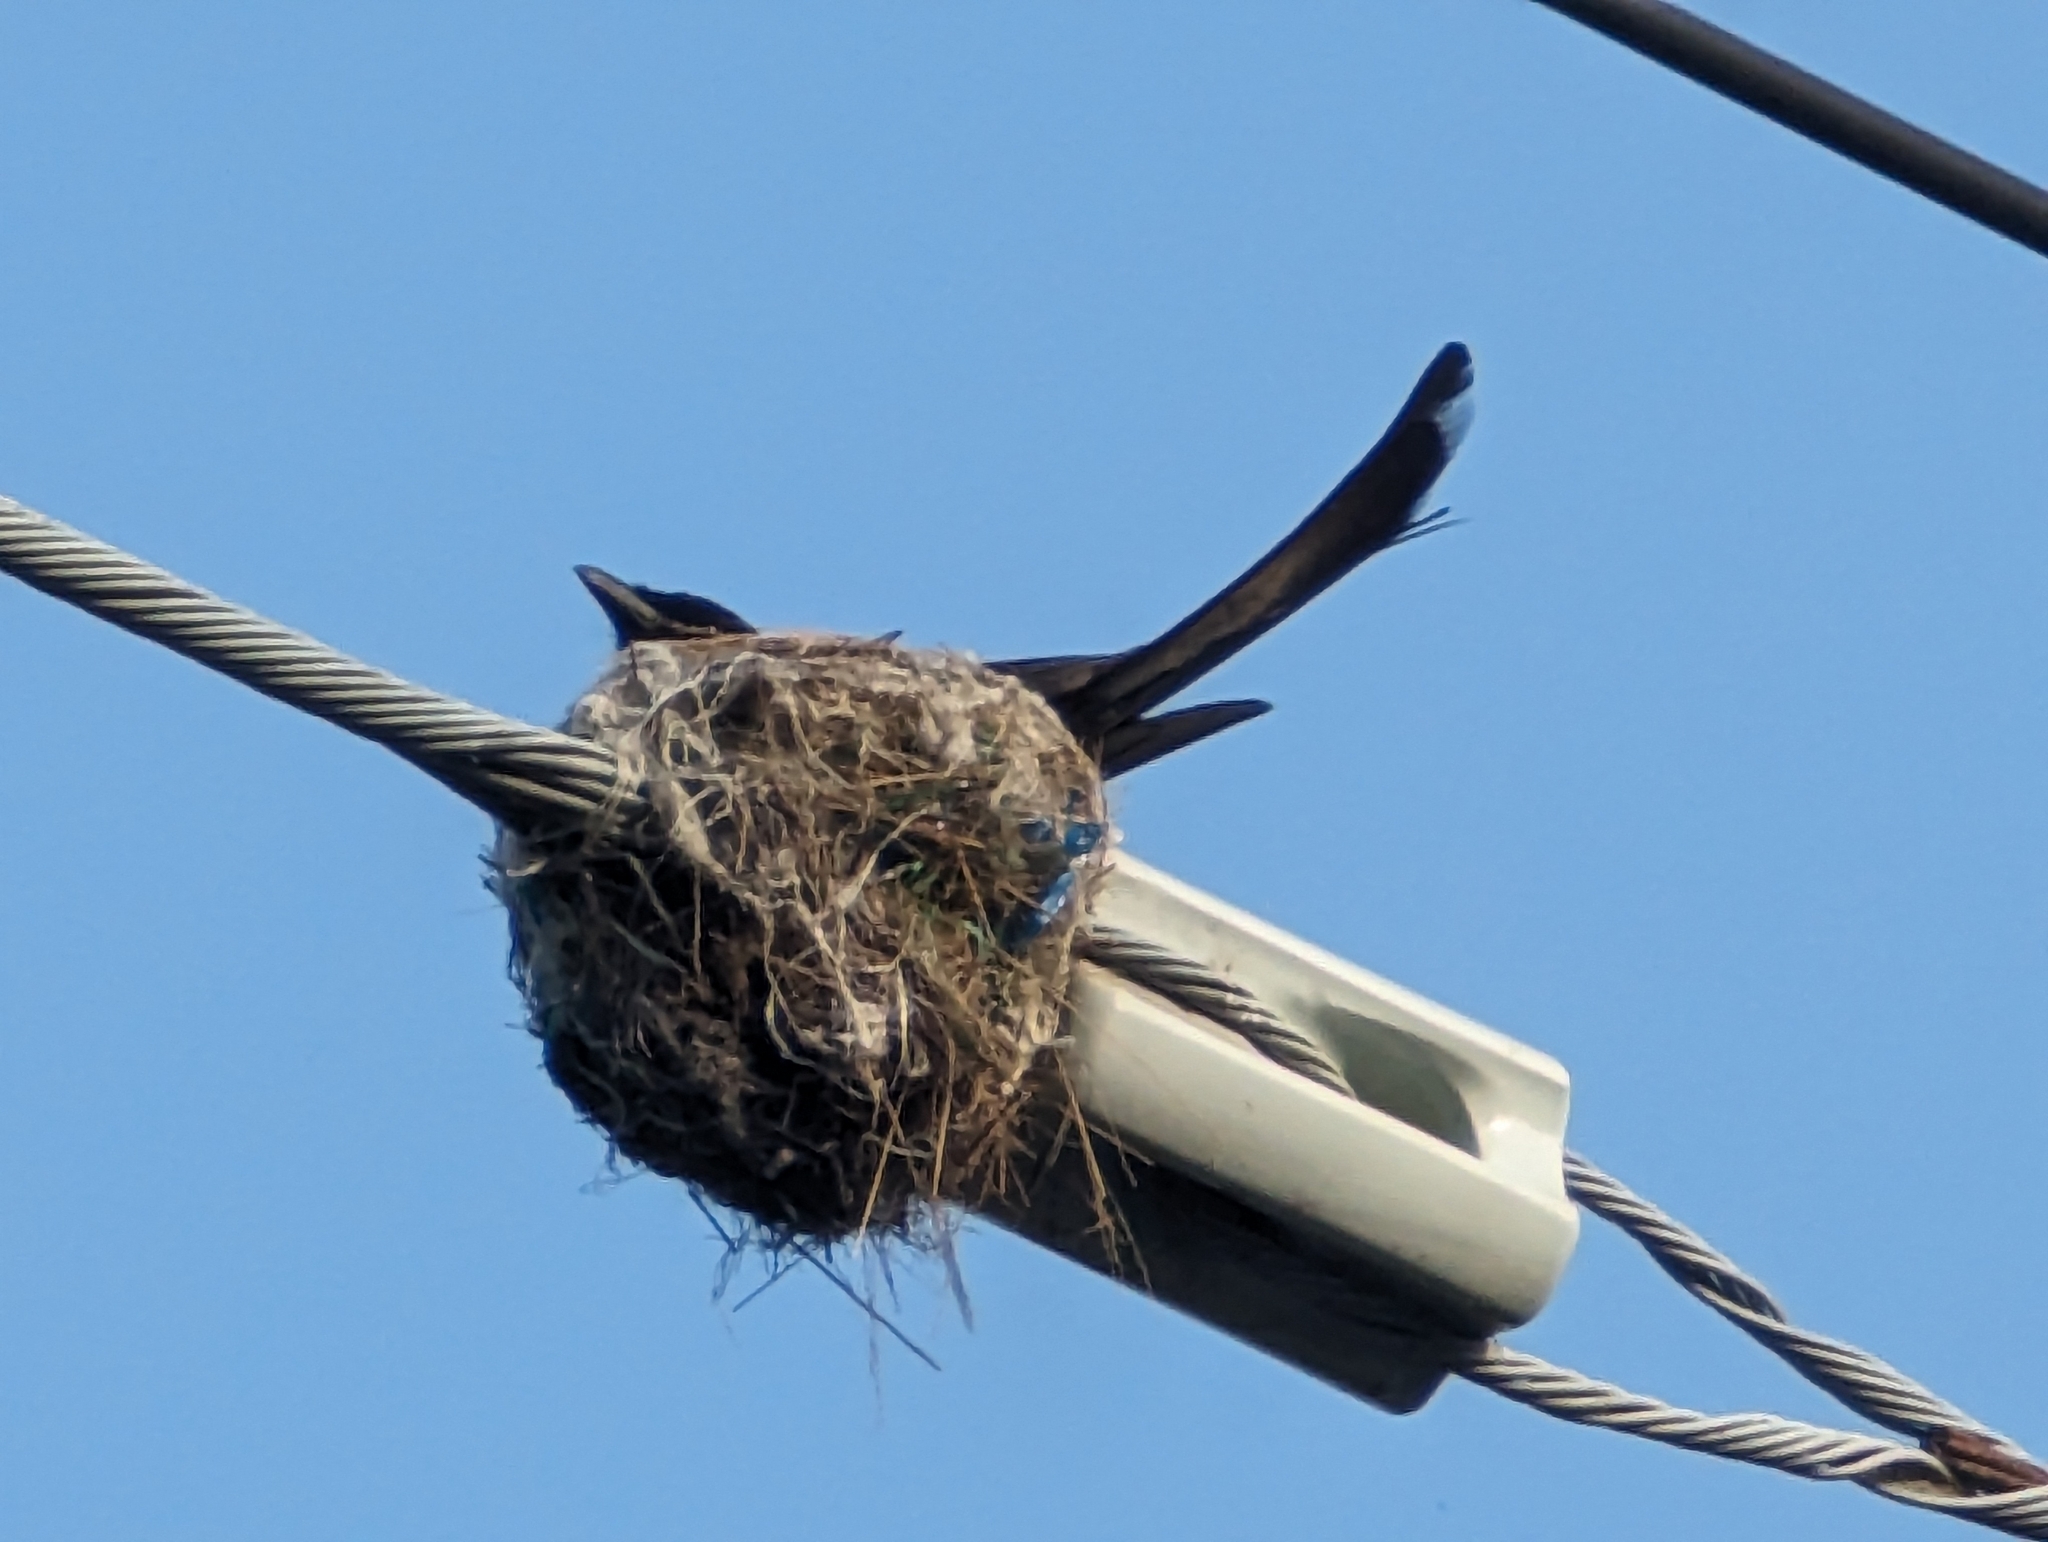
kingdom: Animalia
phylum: Chordata
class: Aves
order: Passeriformes
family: Dicruridae
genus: Dicrurus
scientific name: Dicrurus macrocercus
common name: Black drongo
